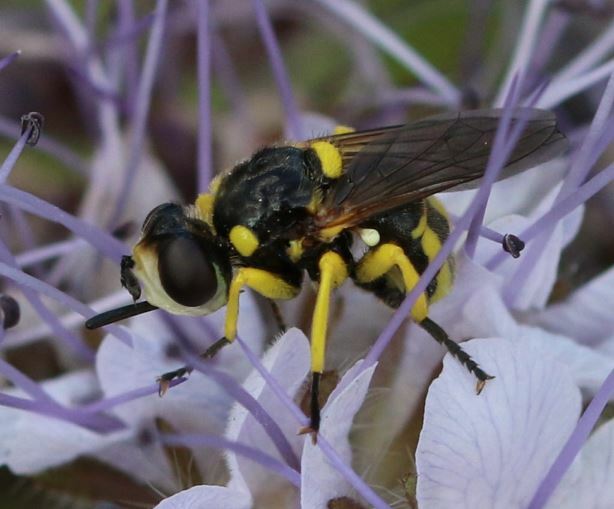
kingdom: Animalia
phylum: Arthropoda
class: Insecta
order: Diptera
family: Conopidae
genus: Dalmannia
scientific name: Dalmannia dorsalis
